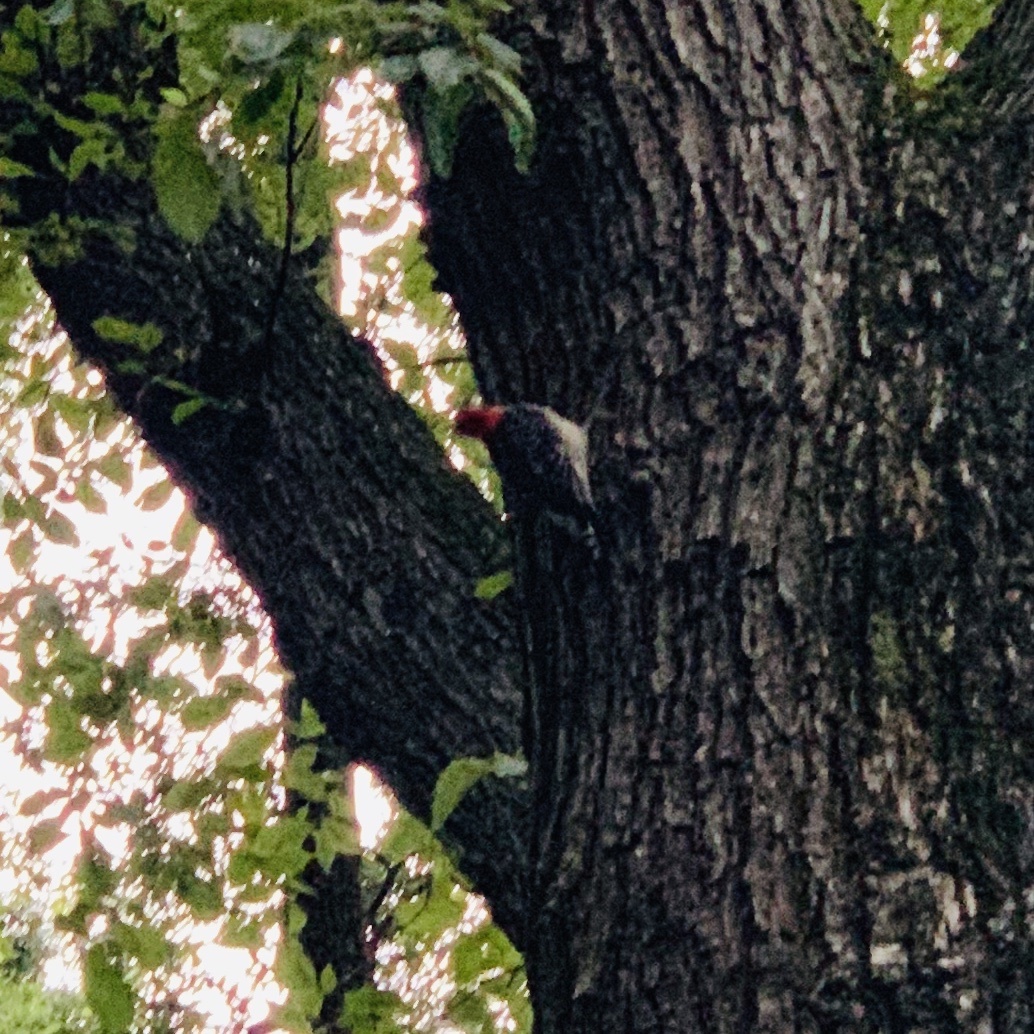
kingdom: Animalia
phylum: Chordata
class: Aves
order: Piciformes
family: Picidae
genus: Melanerpes
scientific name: Melanerpes carolinus
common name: Red-bellied woodpecker
